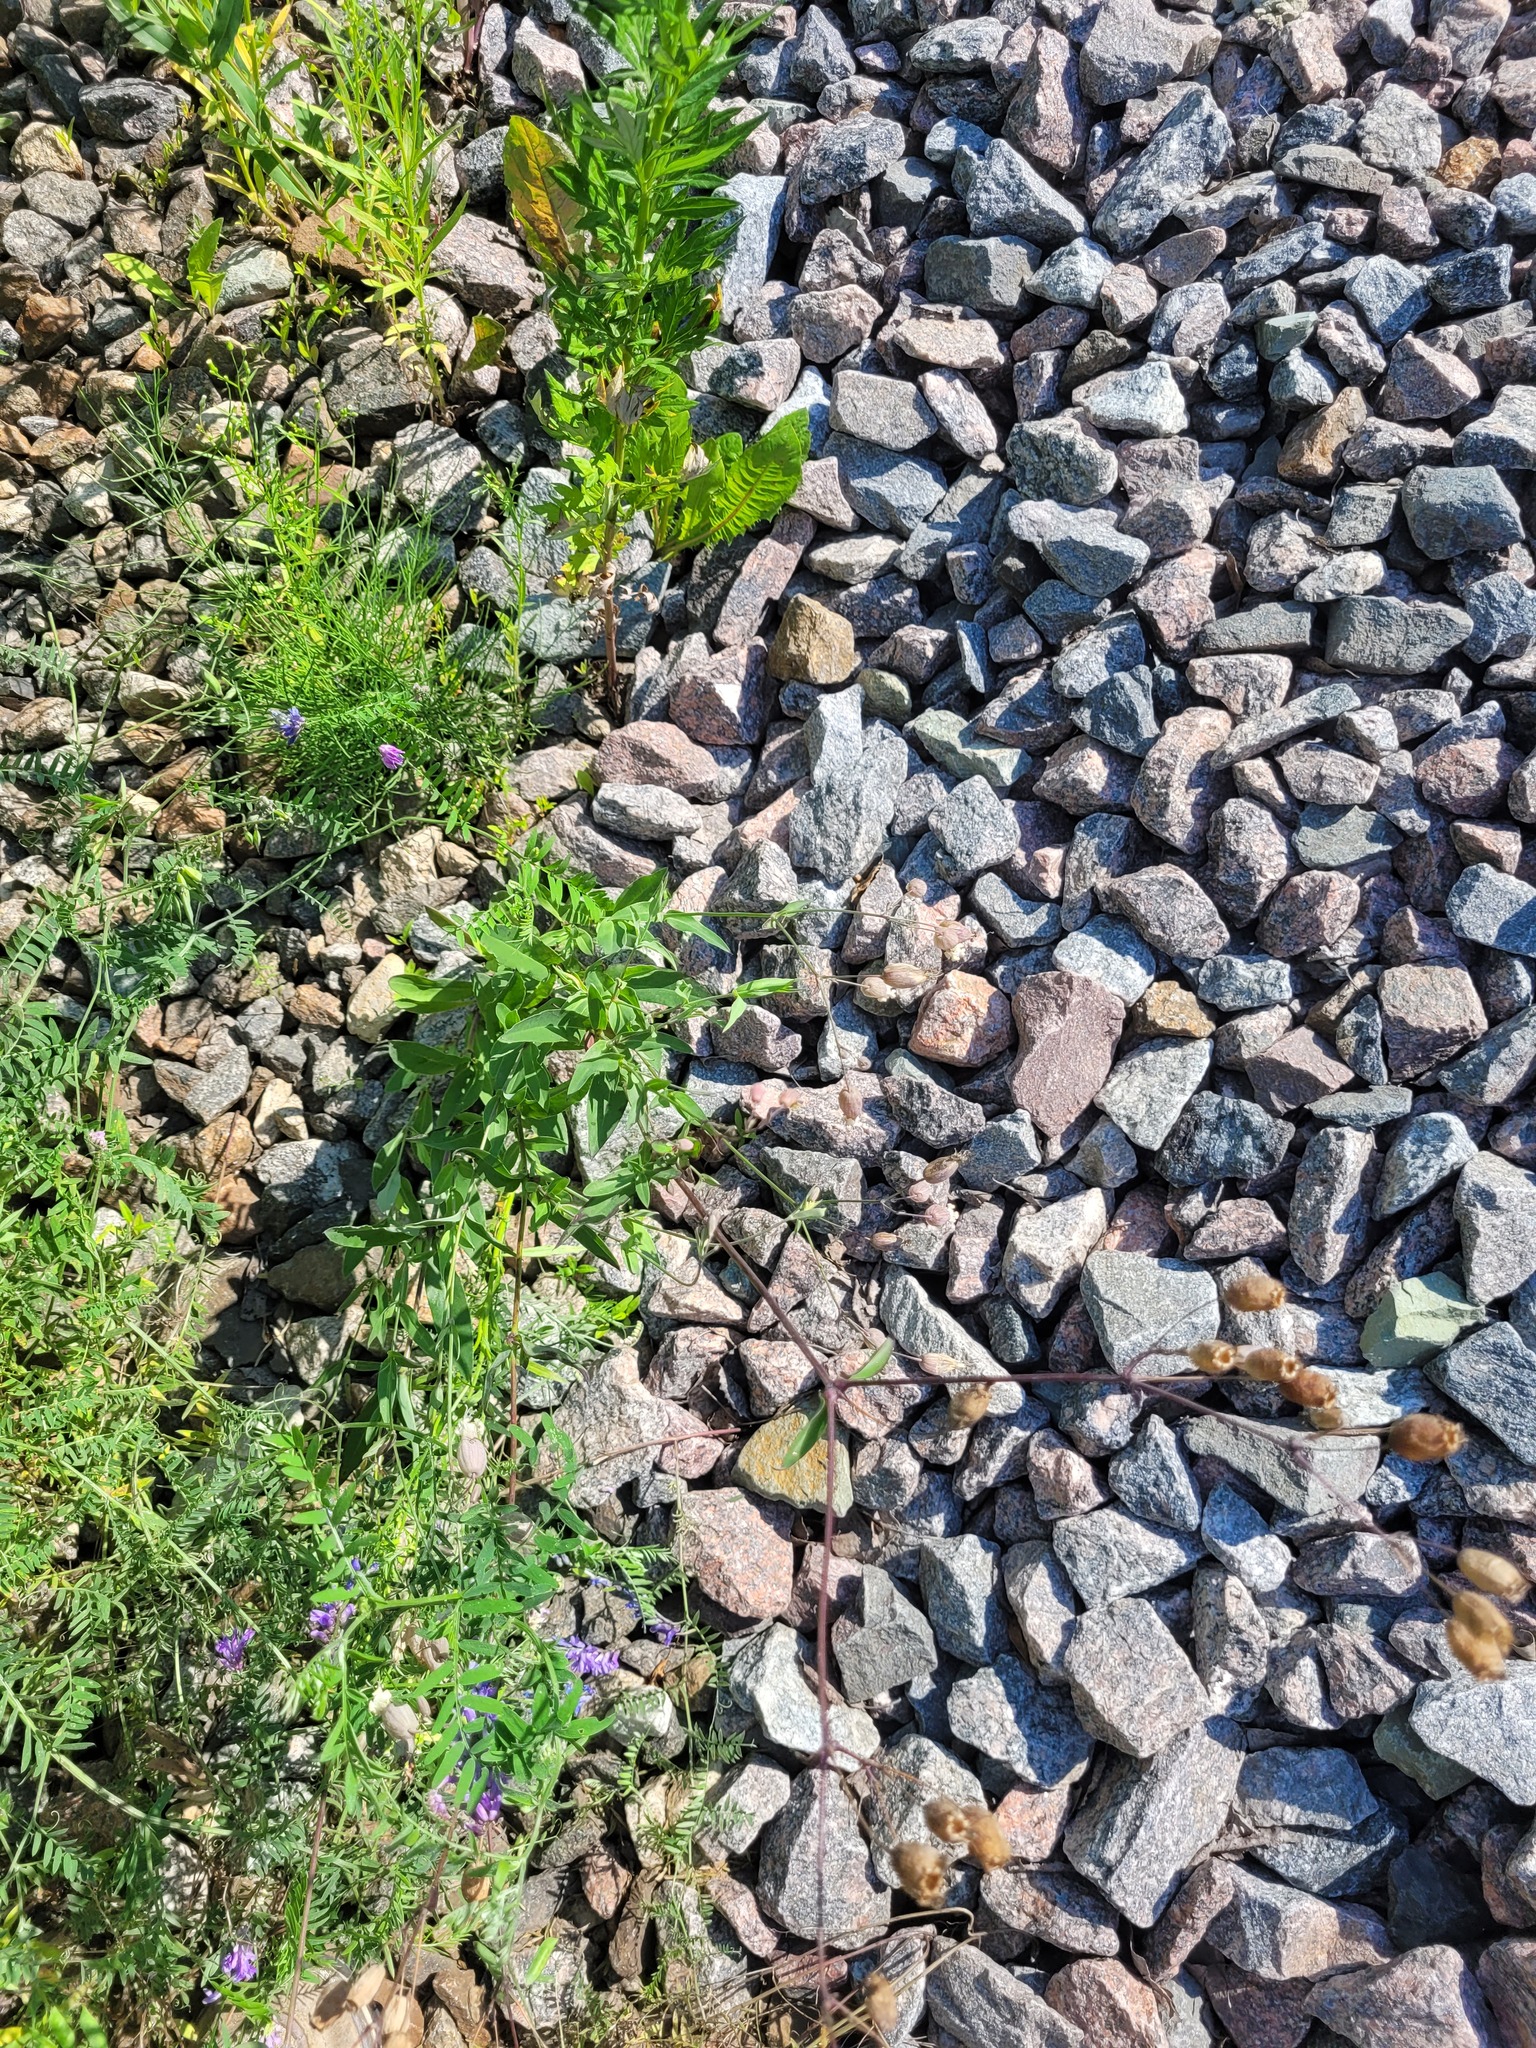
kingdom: Plantae
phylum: Tracheophyta
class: Magnoliopsida
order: Caryophyllales
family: Caryophyllaceae
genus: Silene
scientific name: Silene vulgaris
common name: Bladder campion
